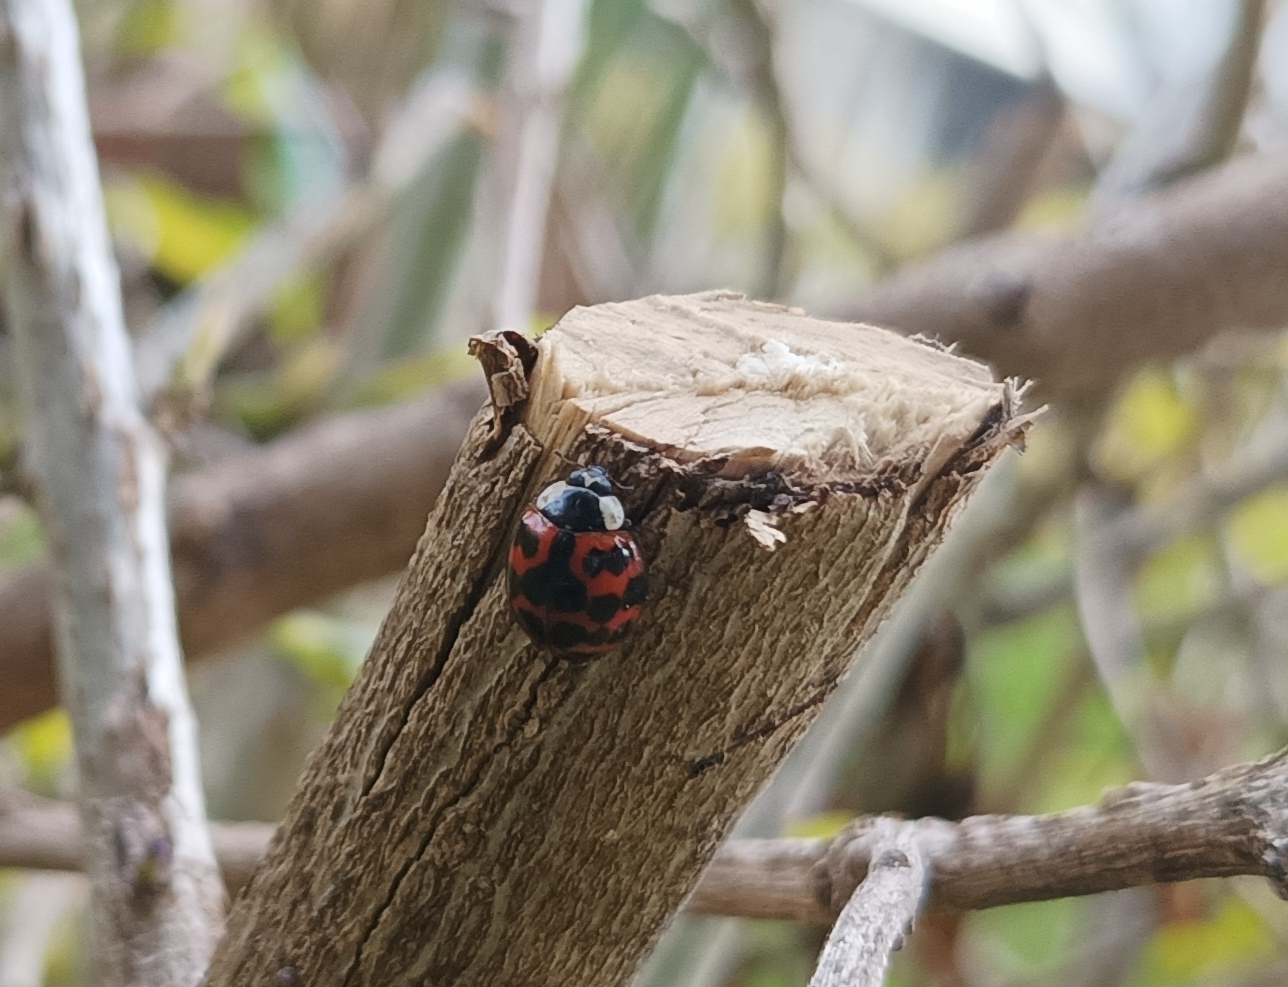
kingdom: Animalia
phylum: Arthropoda
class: Insecta
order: Coleoptera
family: Coccinellidae
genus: Harmonia
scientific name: Harmonia axyridis
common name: Harlequin ladybird
